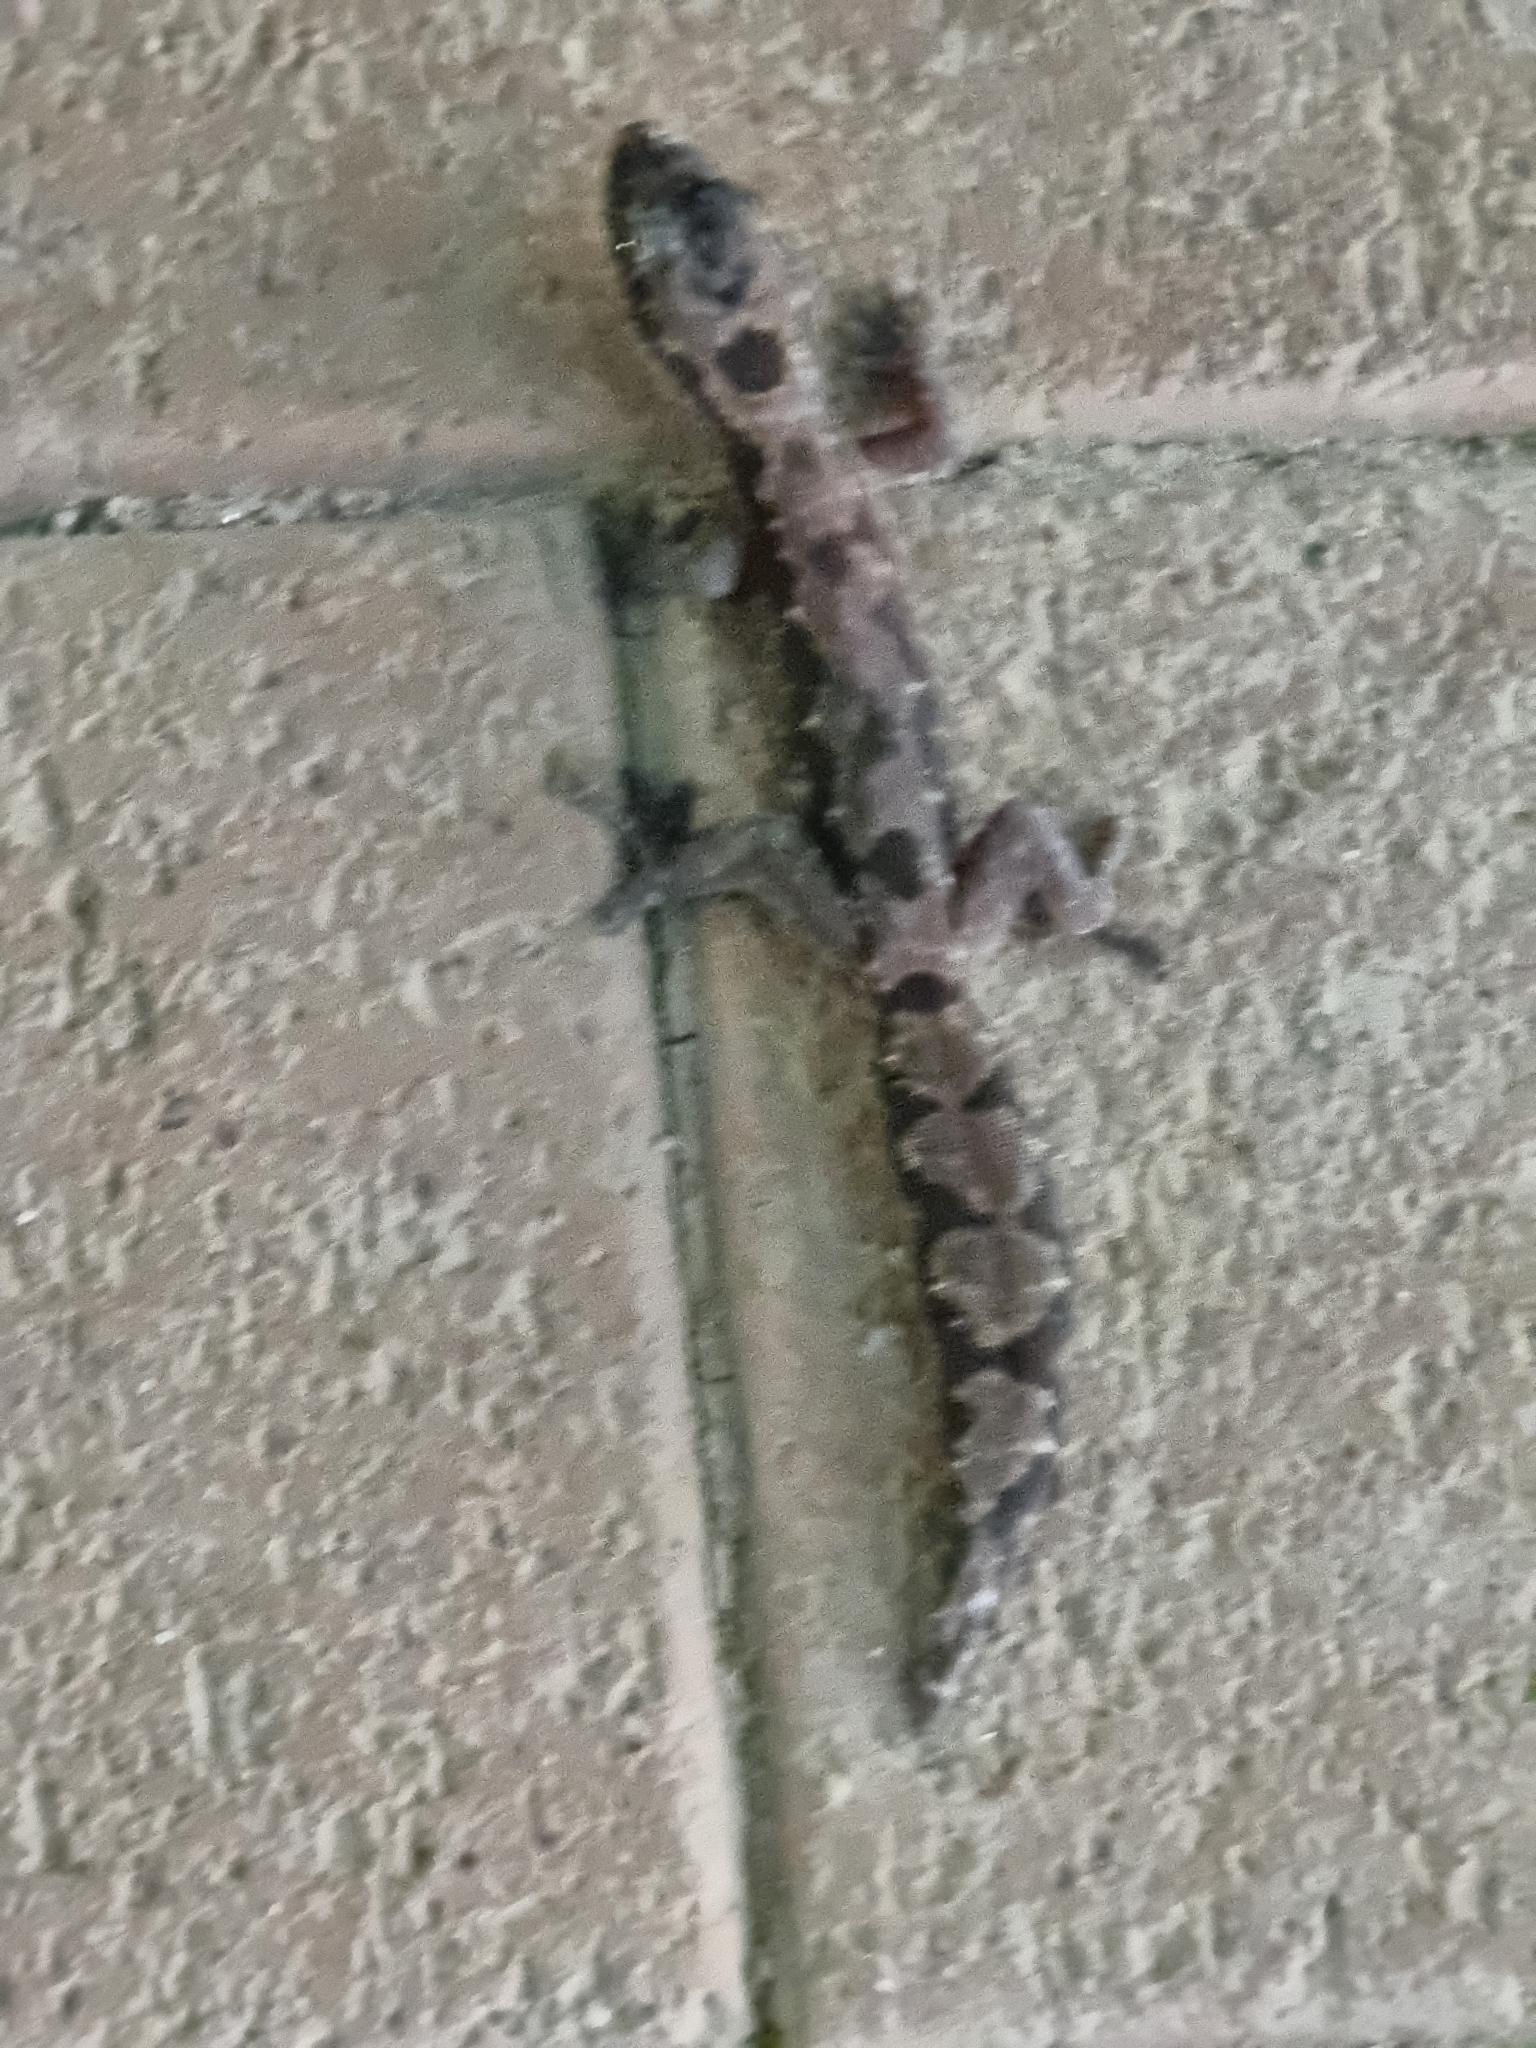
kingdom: Animalia
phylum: Chordata
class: Squamata
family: Diplodactylidae
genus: Nebulifera
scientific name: Nebulifera robusta
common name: Robust gecko
